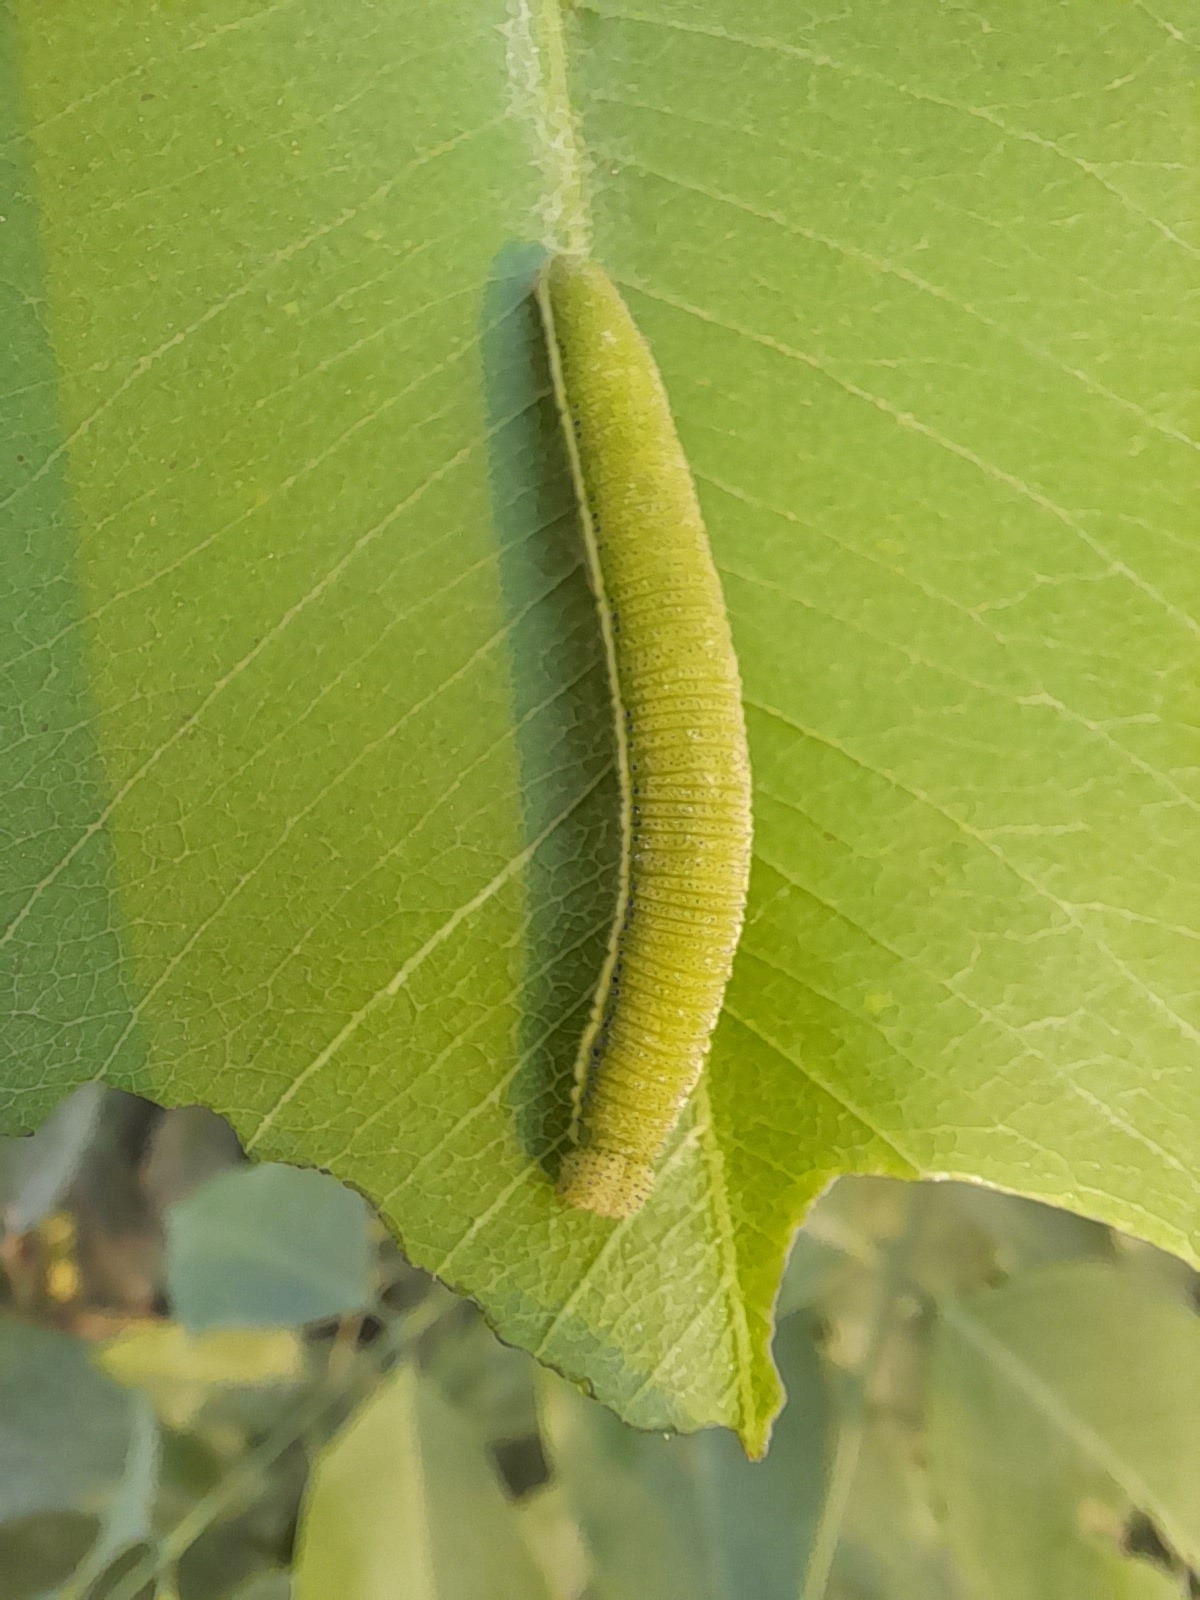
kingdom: Animalia
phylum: Arthropoda
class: Insecta
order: Lepidoptera
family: Pieridae
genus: Catopsilia
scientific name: Catopsilia pomona
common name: Common emigrant
